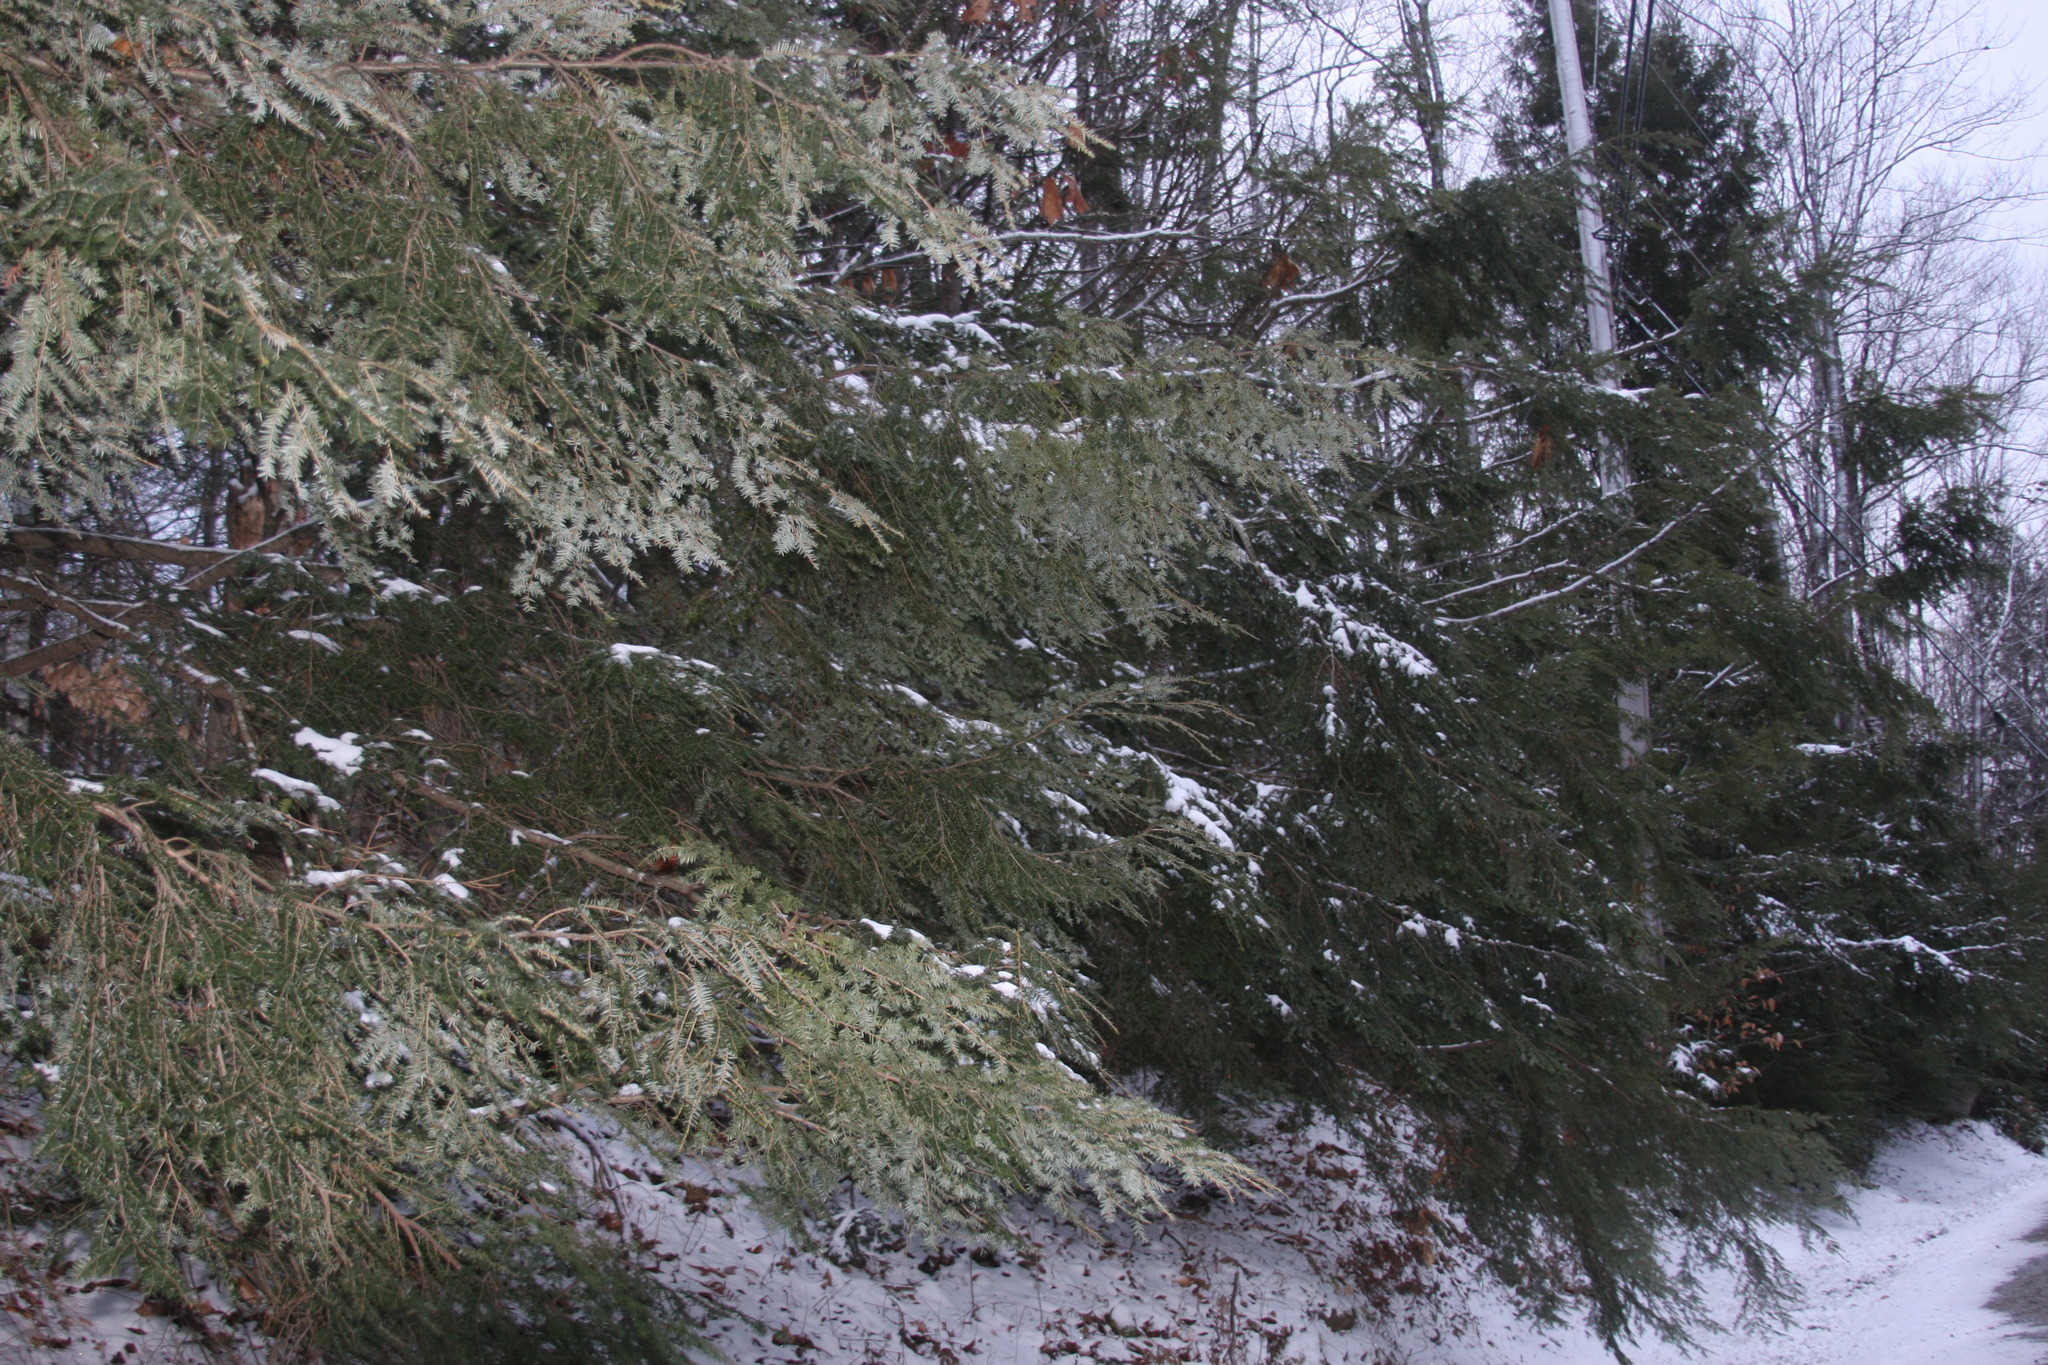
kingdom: Plantae
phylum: Tracheophyta
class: Pinopsida
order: Pinales
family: Pinaceae
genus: Tsuga
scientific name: Tsuga canadensis
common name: Eastern hemlock
